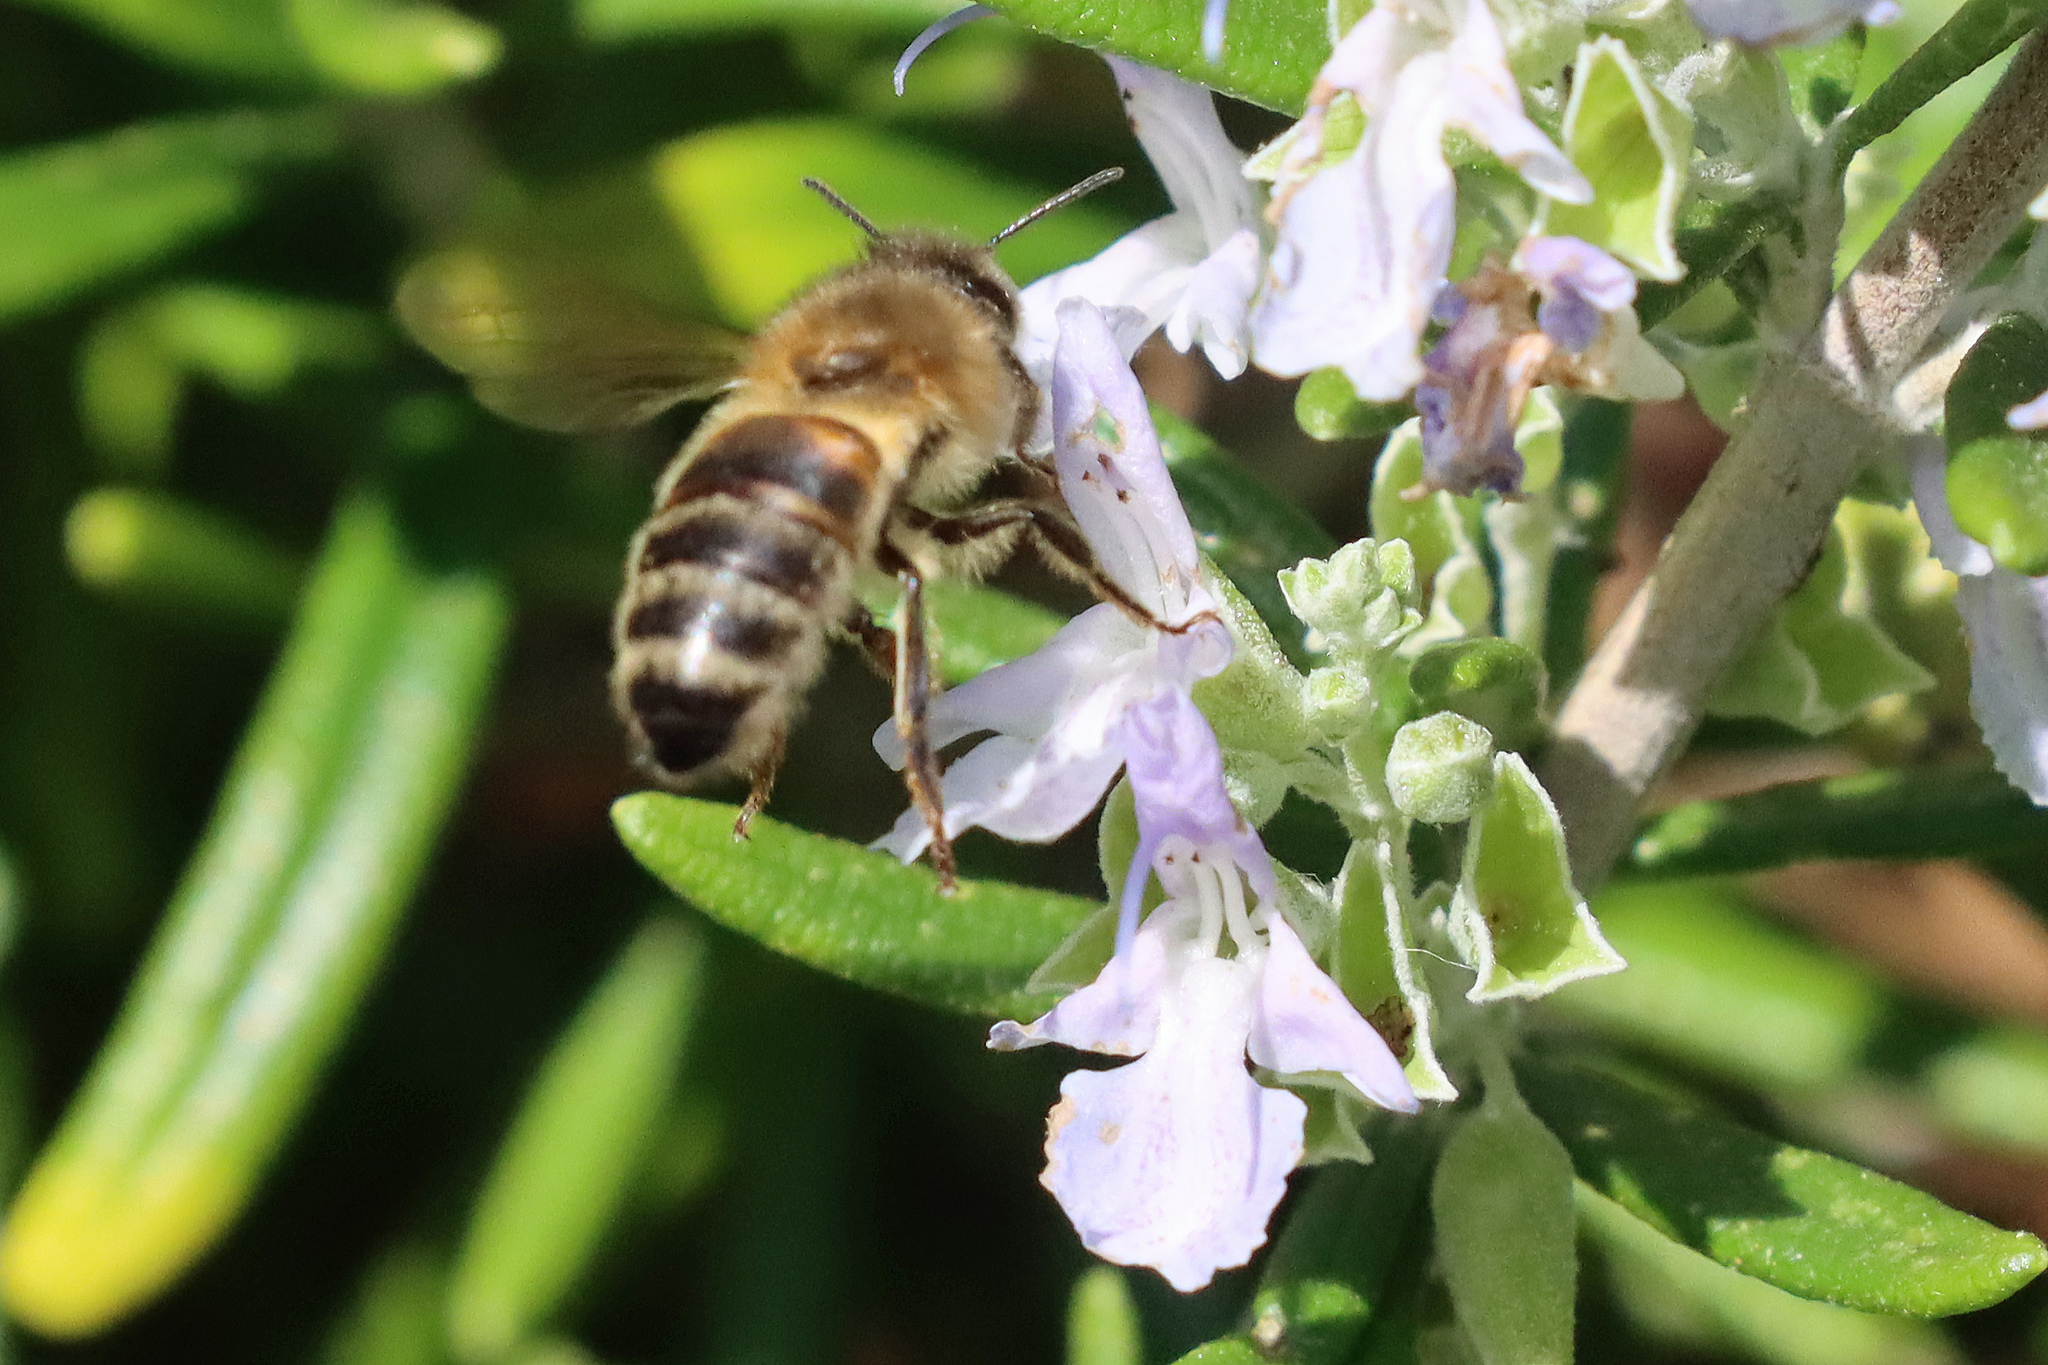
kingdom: Animalia
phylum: Arthropoda
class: Insecta
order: Hymenoptera
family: Apidae
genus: Apis
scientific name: Apis mellifera
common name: Honey bee
